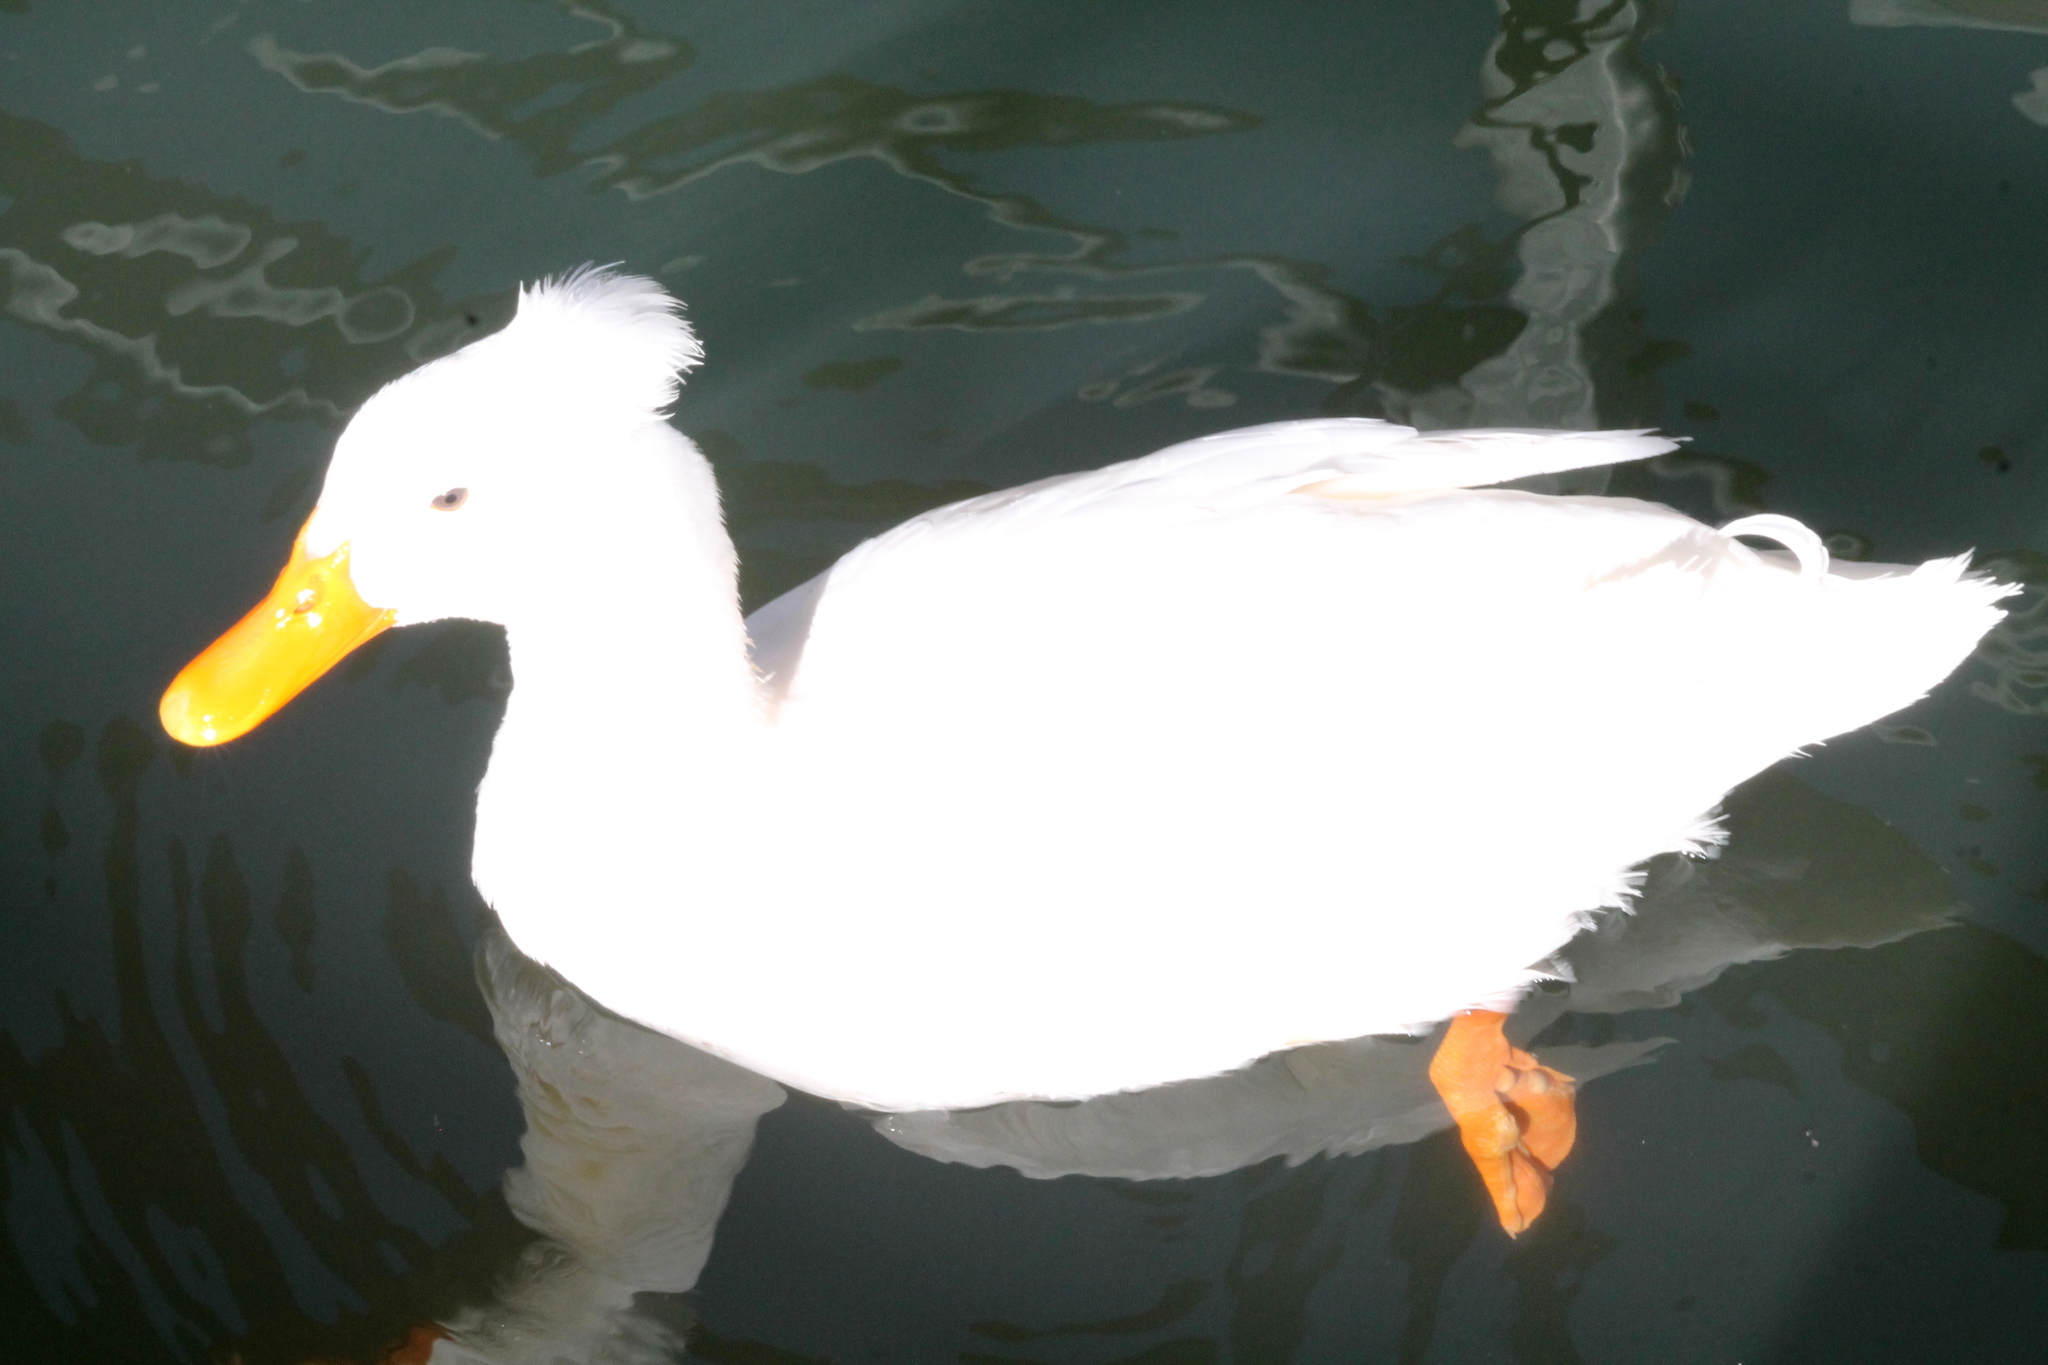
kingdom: Animalia
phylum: Chordata
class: Aves
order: Anseriformes
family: Anatidae
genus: Anas
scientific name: Anas platyrhynchos
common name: Mallard
